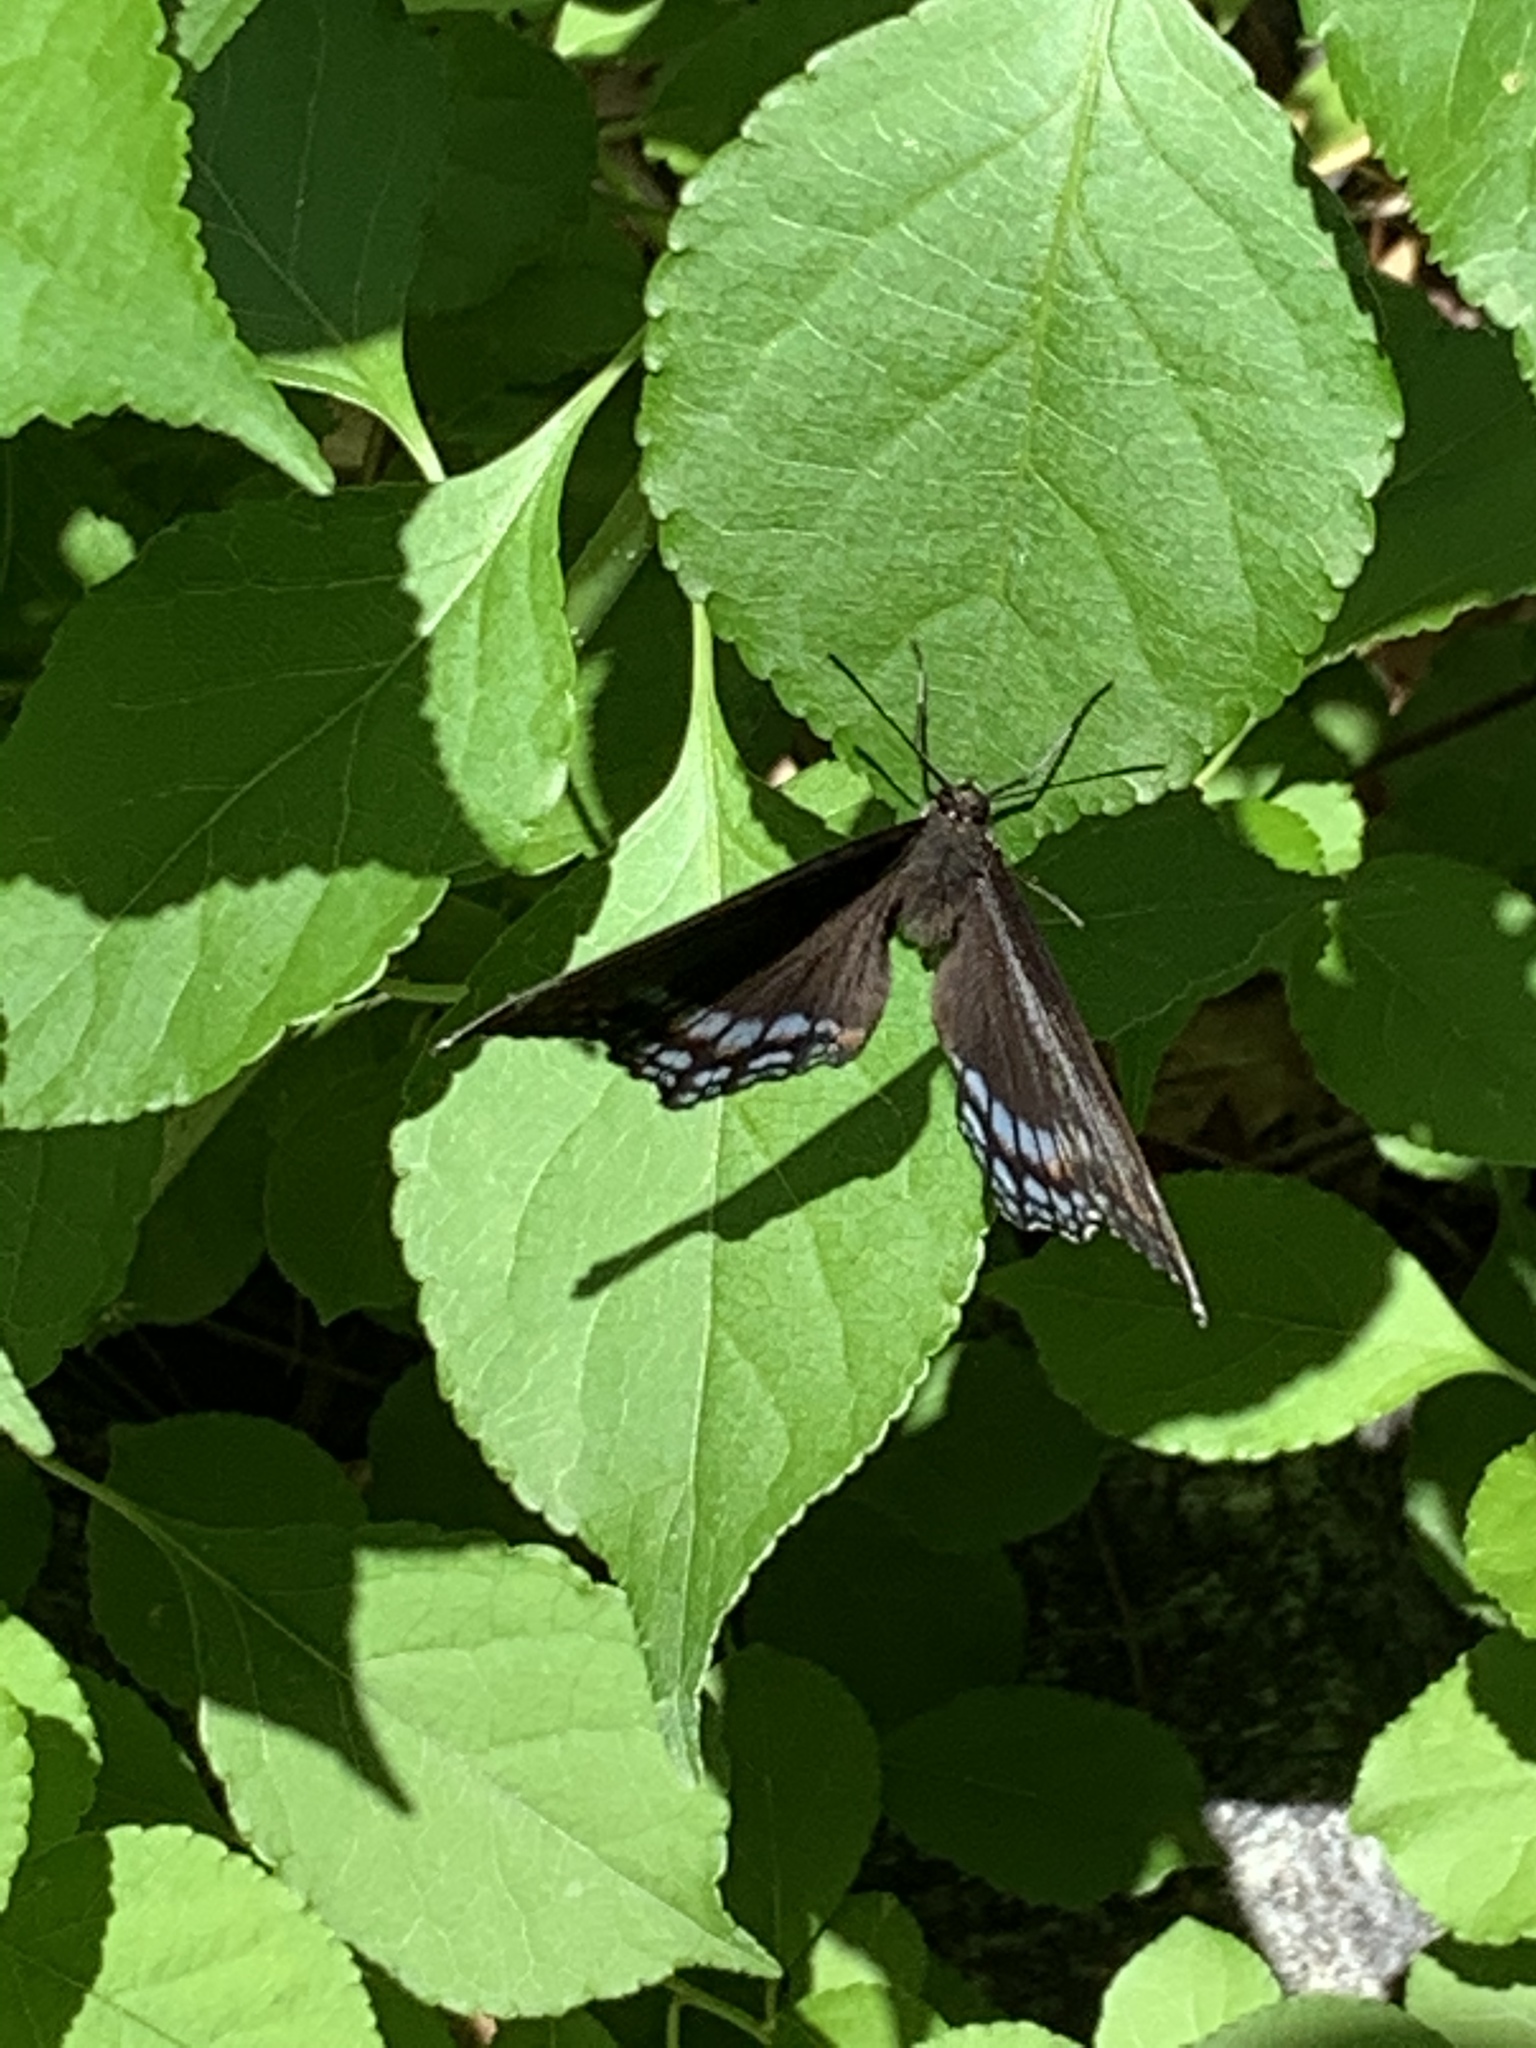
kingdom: Animalia
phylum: Arthropoda
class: Insecta
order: Lepidoptera
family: Nymphalidae
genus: Limenitis
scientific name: Limenitis astyanax
